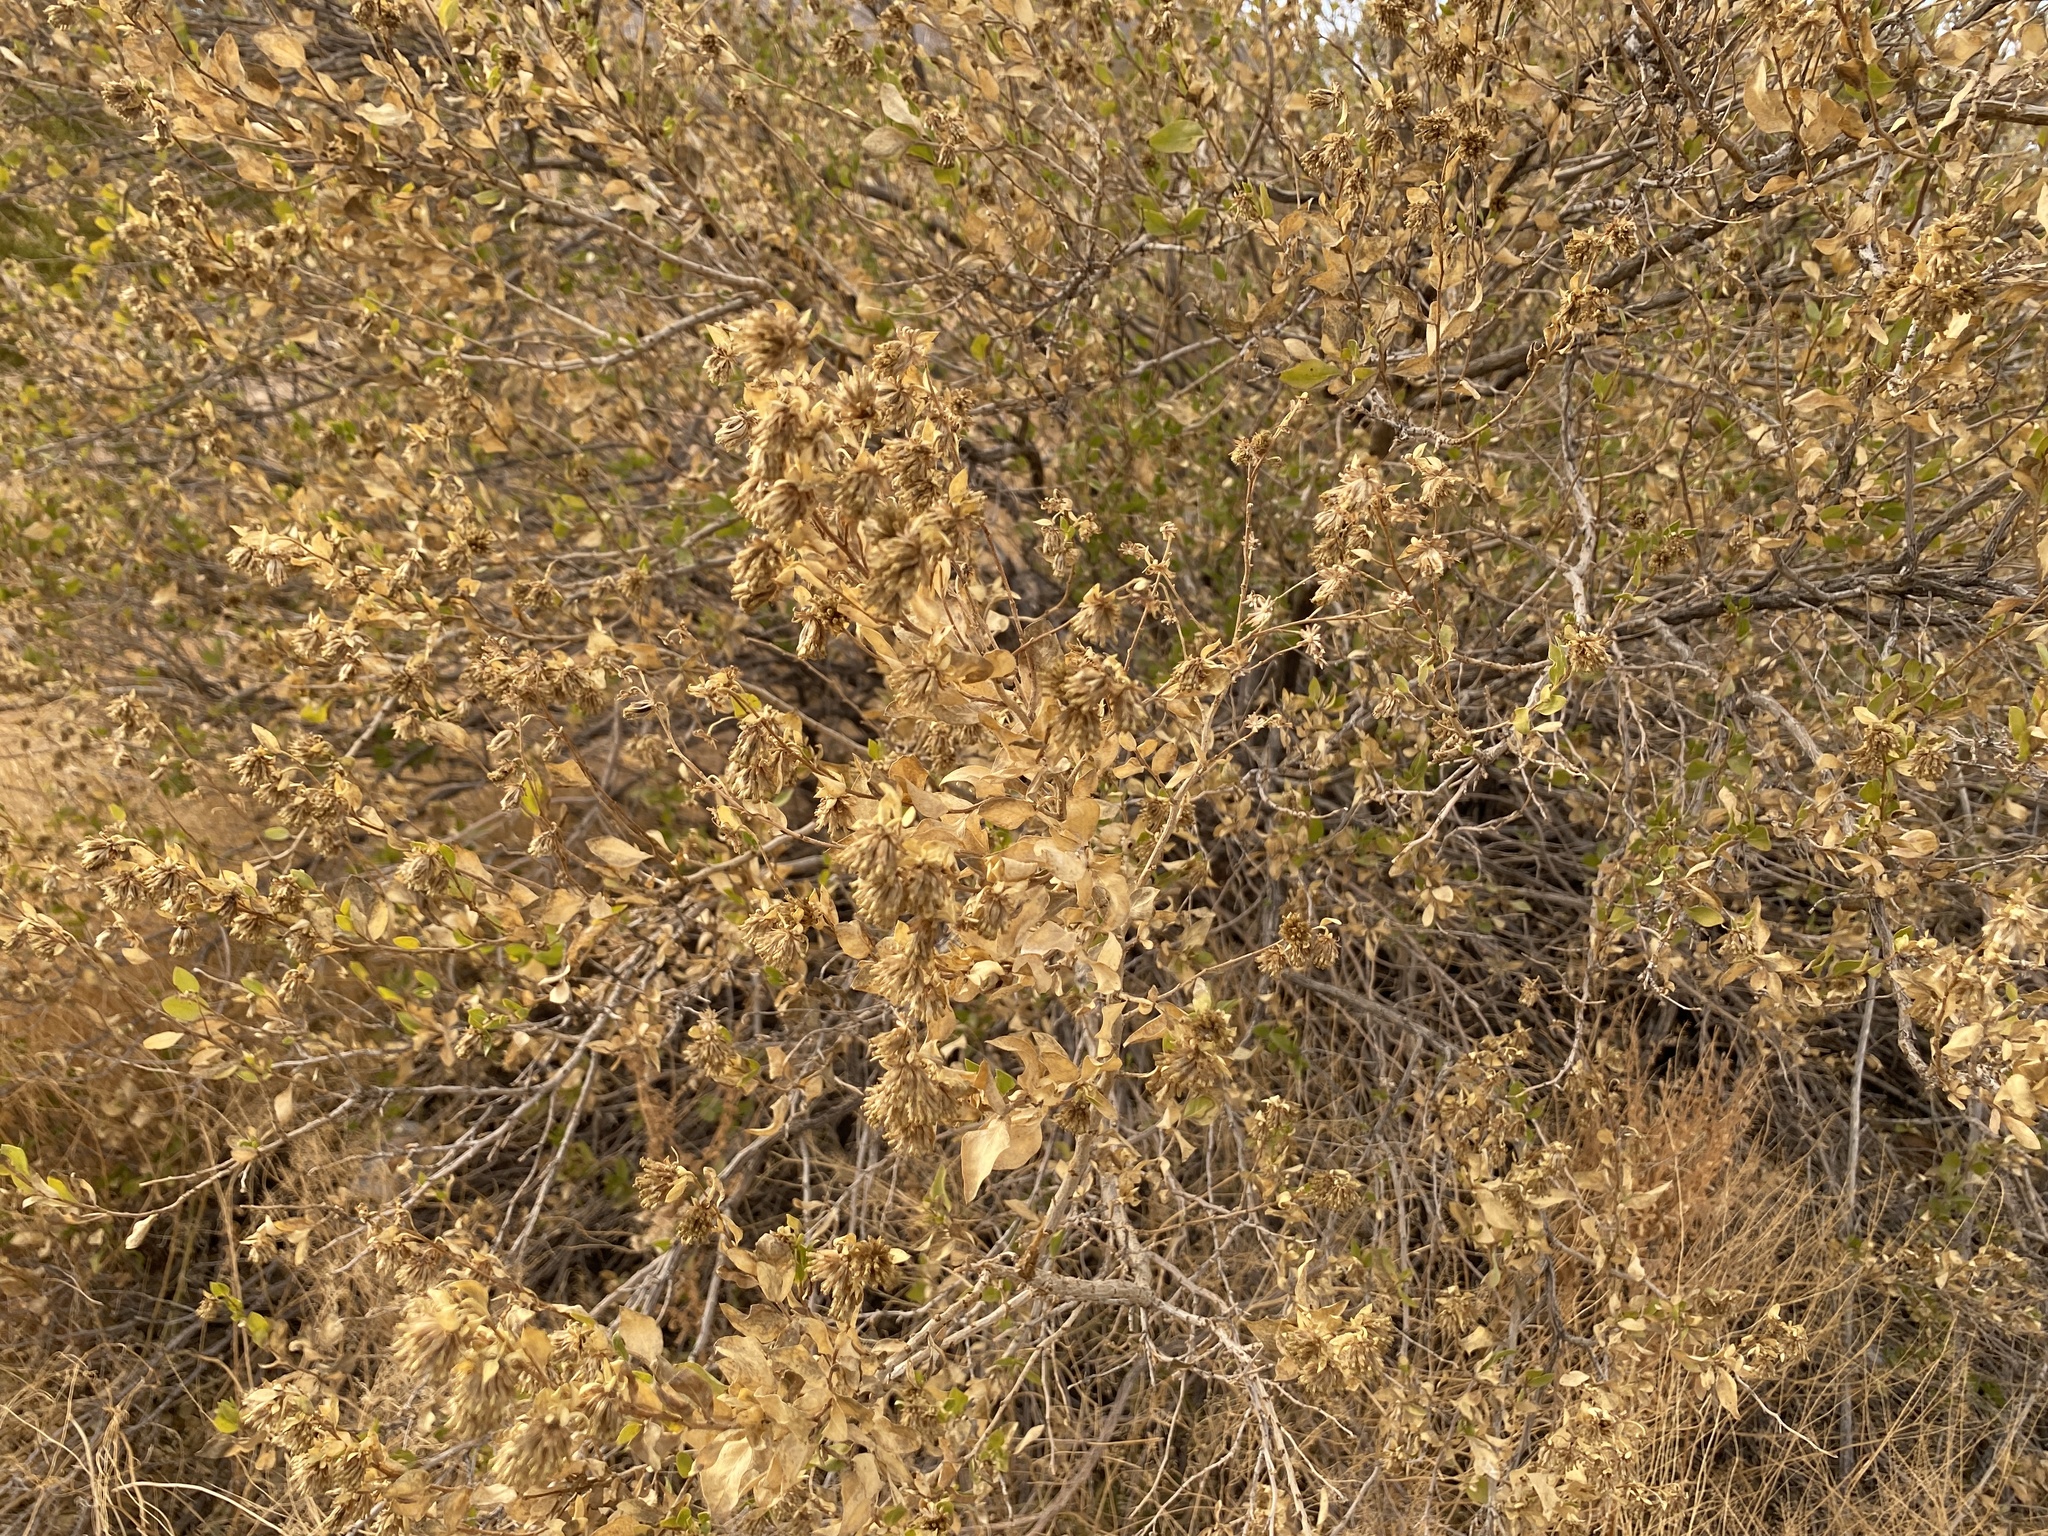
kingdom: Plantae
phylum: Tracheophyta
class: Magnoliopsida
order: Asterales
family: Asteraceae
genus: Flourensia
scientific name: Flourensia cernua
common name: Varnishbush
